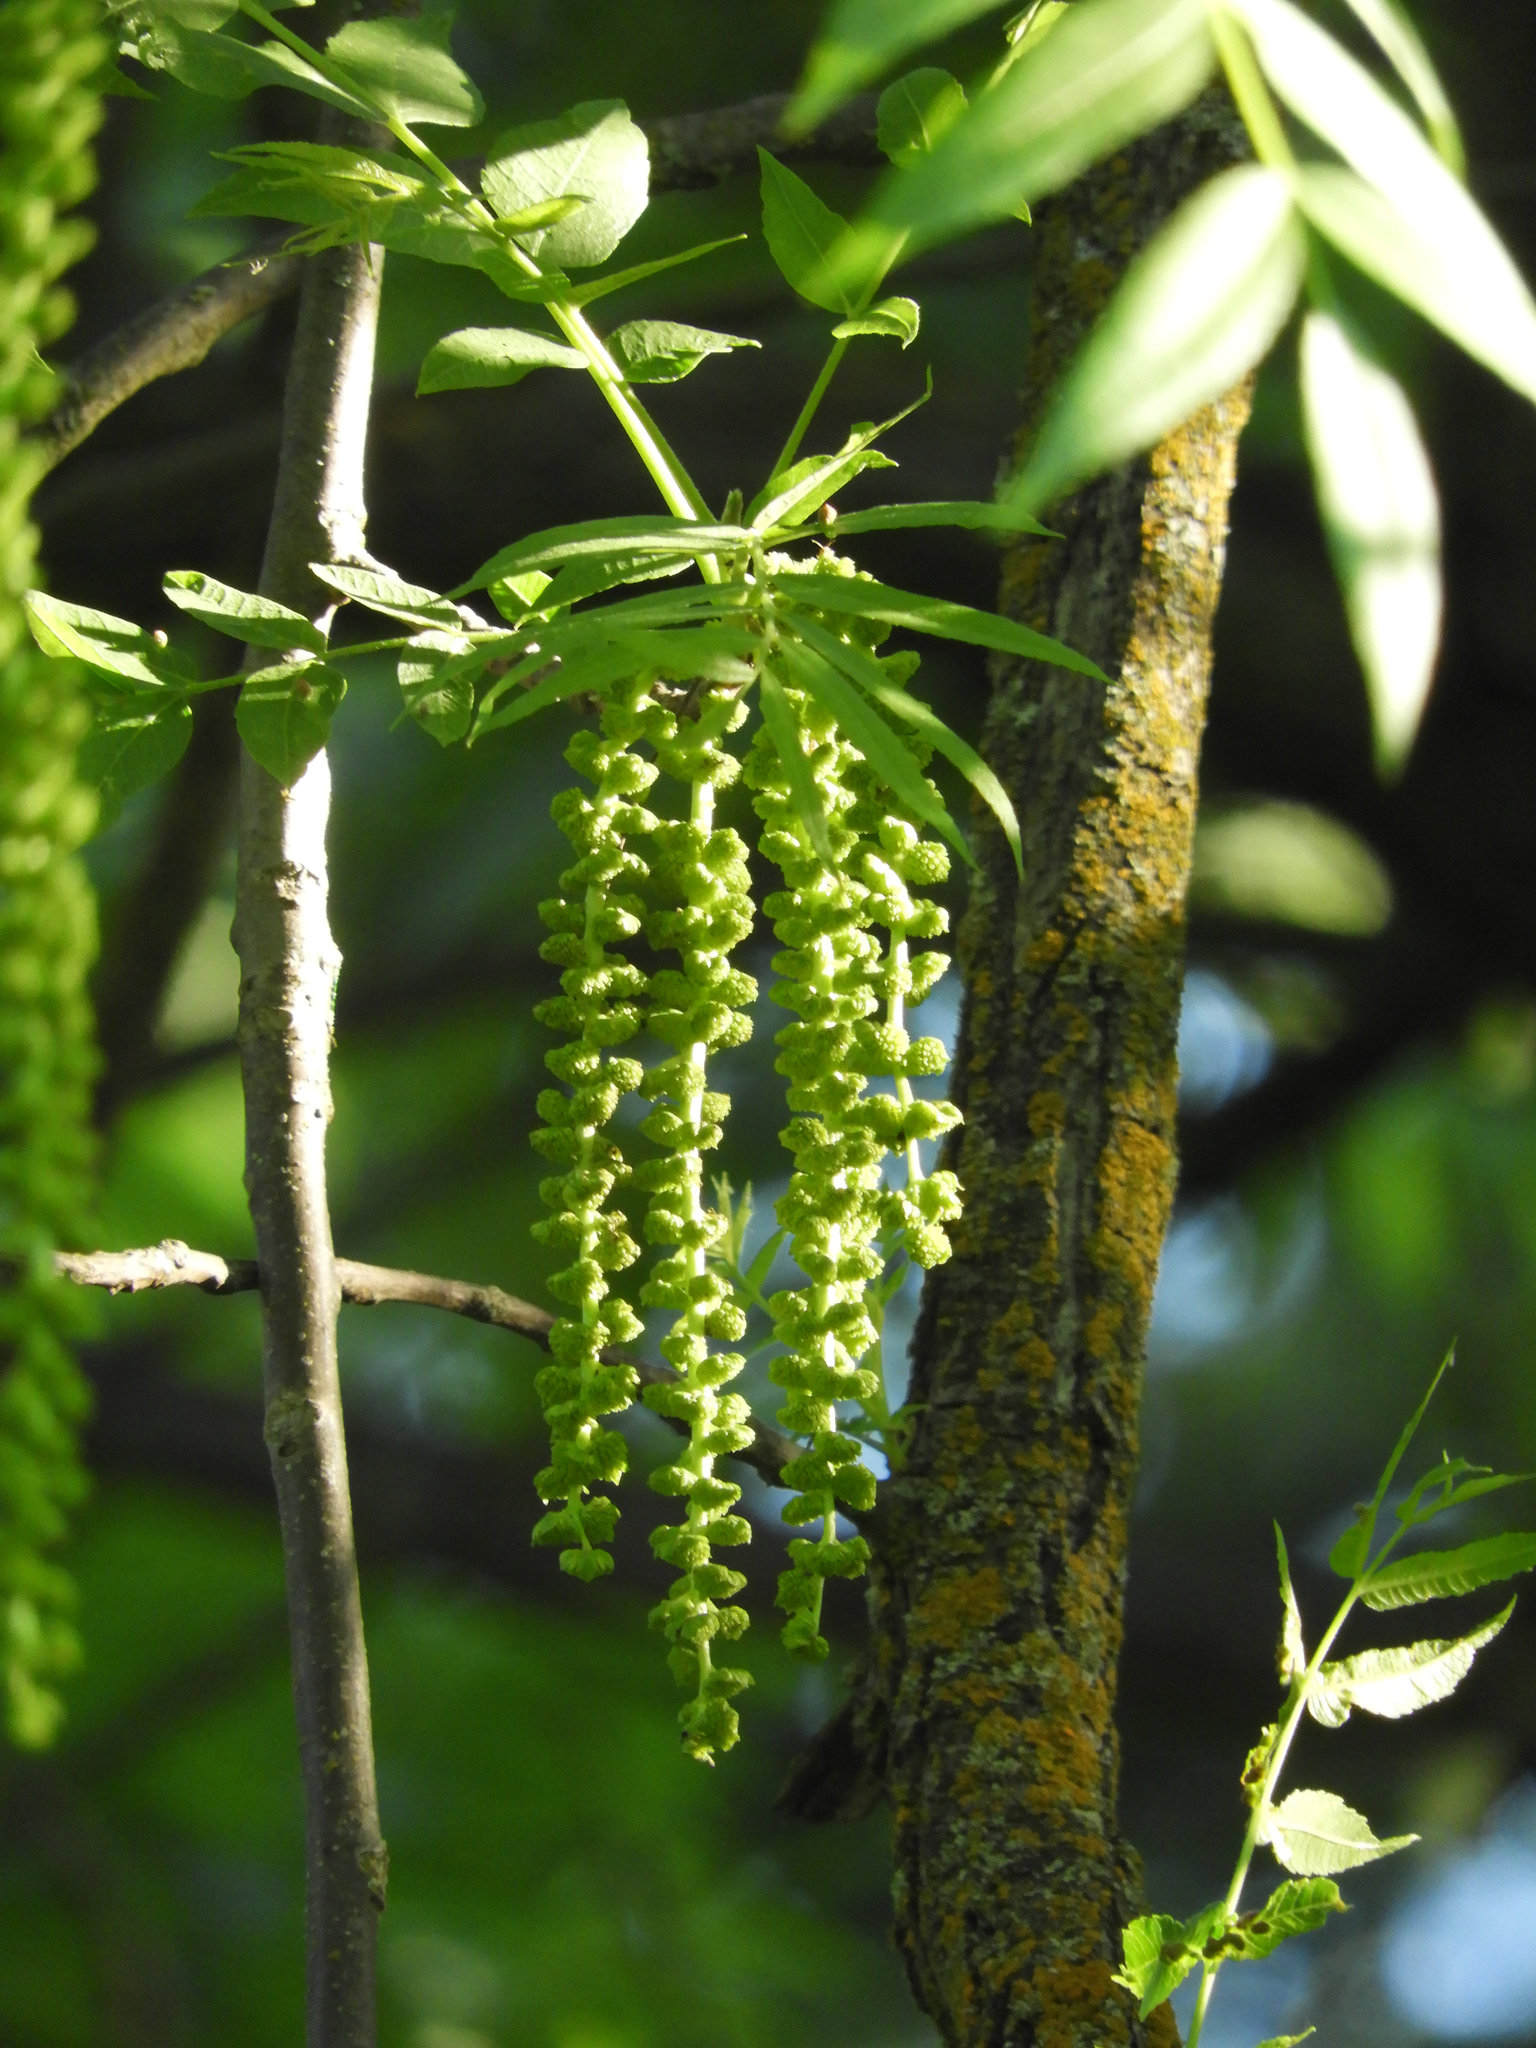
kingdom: Plantae
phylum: Tracheophyta
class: Magnoliopsida
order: Fagales
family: Juglandaceae
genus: Juglans
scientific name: Juglans hindsii
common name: Northern california black walnut
